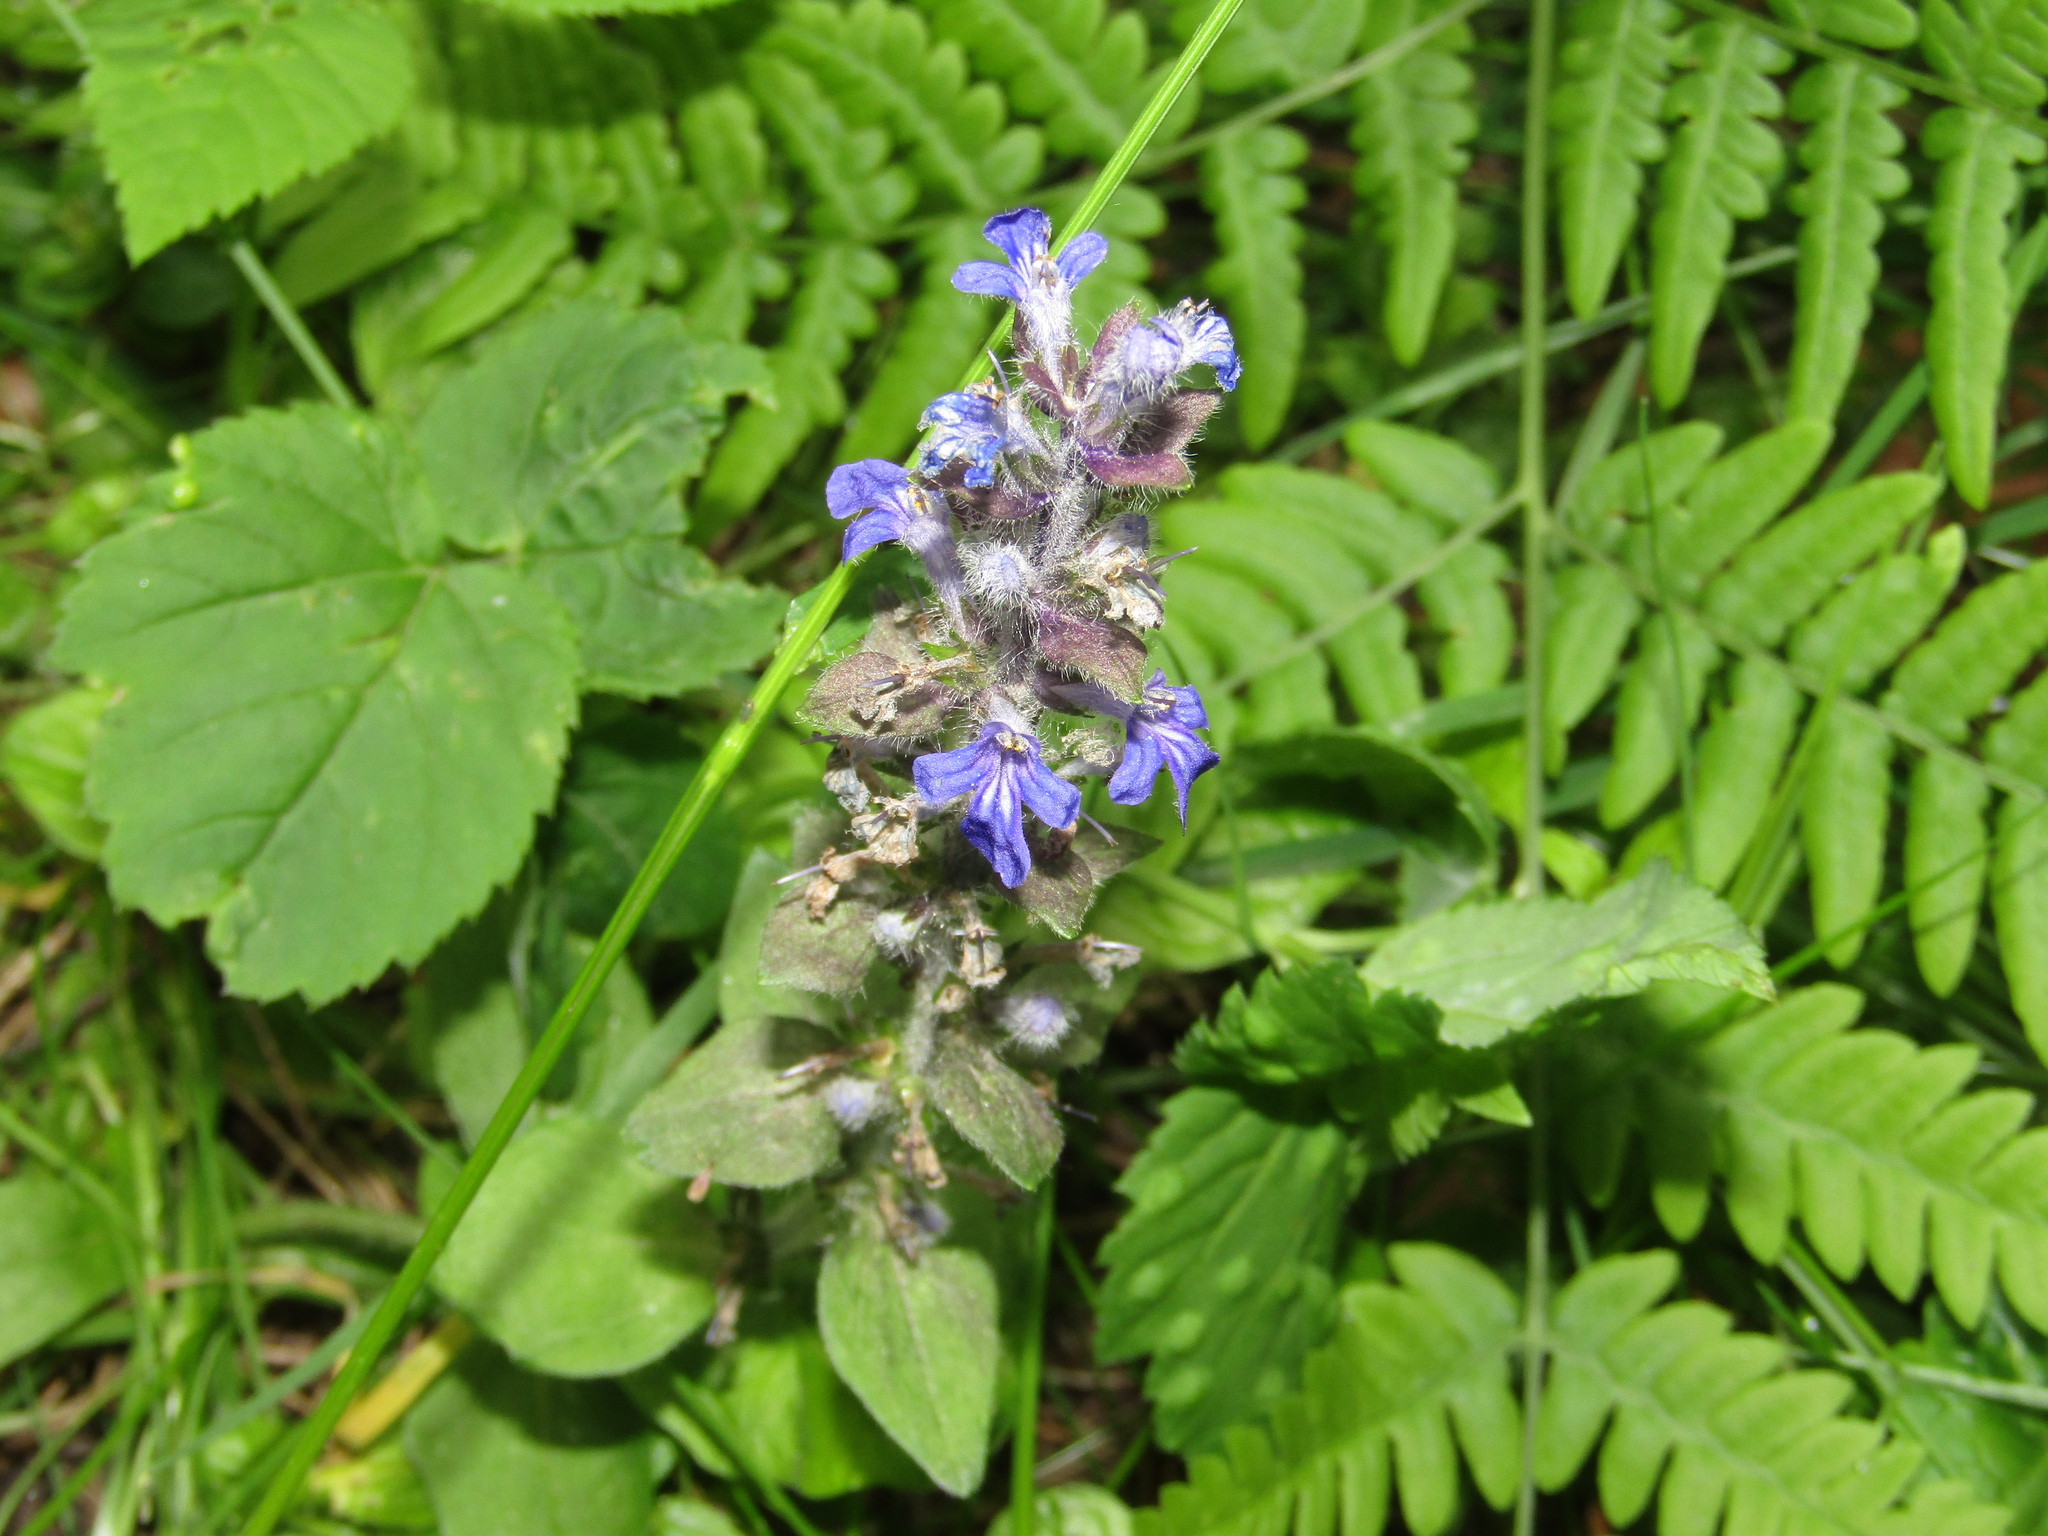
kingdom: Plantae
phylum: Tracheophyta
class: Magnoliopsida
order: Lamiales
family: Lamiaceae
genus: Ajuga
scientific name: Ajuga reptans
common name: Bugle
